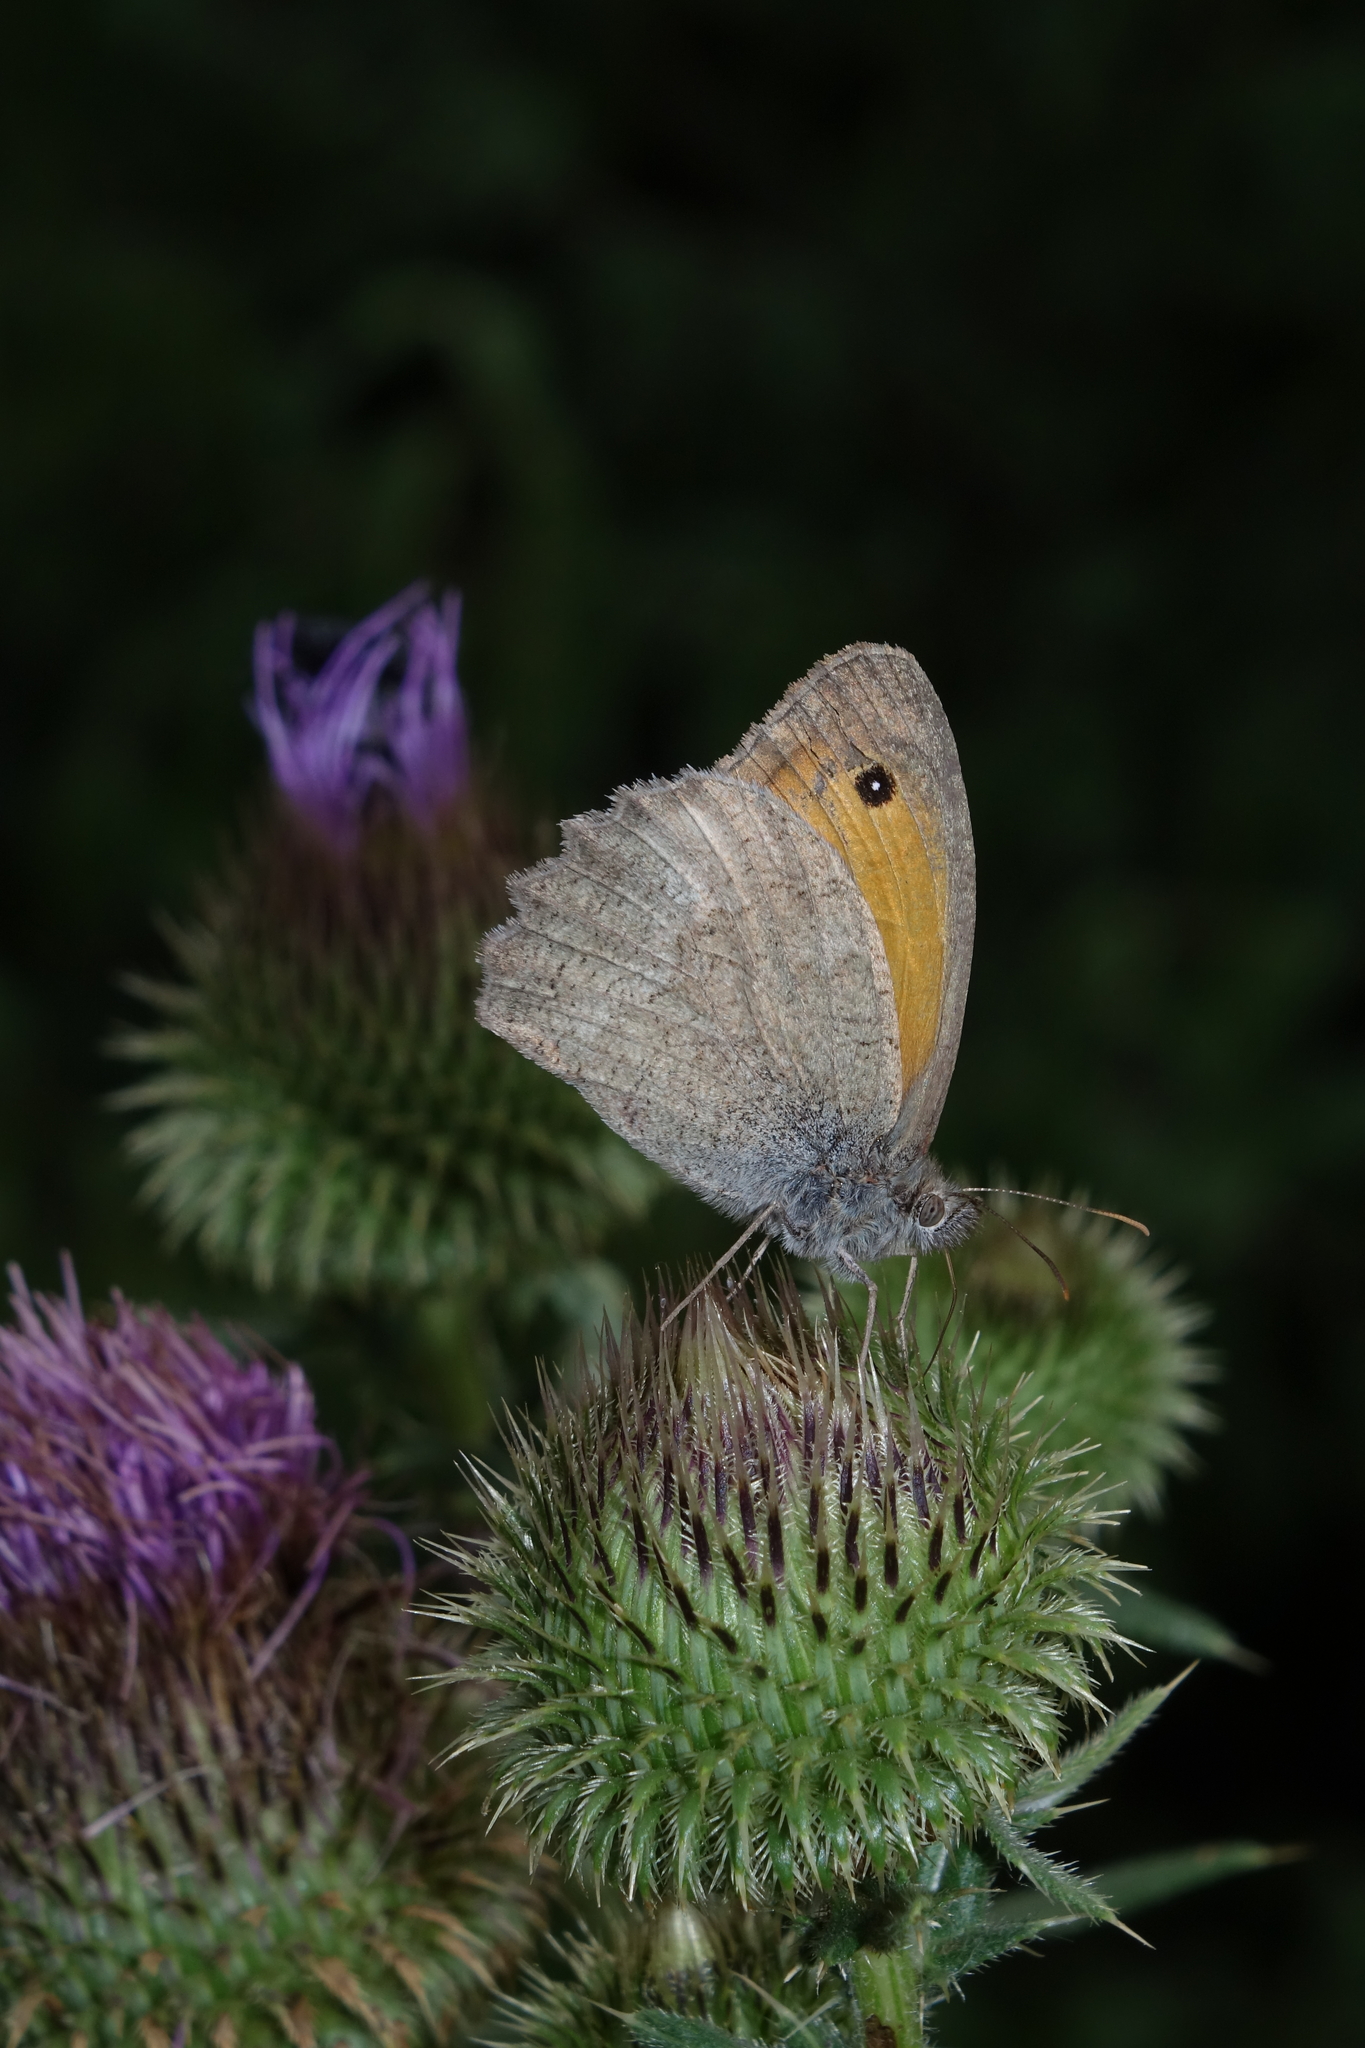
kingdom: Animalia
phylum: Arthropoda
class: Insecta
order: Lepidoptera
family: Nymphalidae
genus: Hyponephele
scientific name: Hyponephele lupinus
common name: Oriental meadow brown
